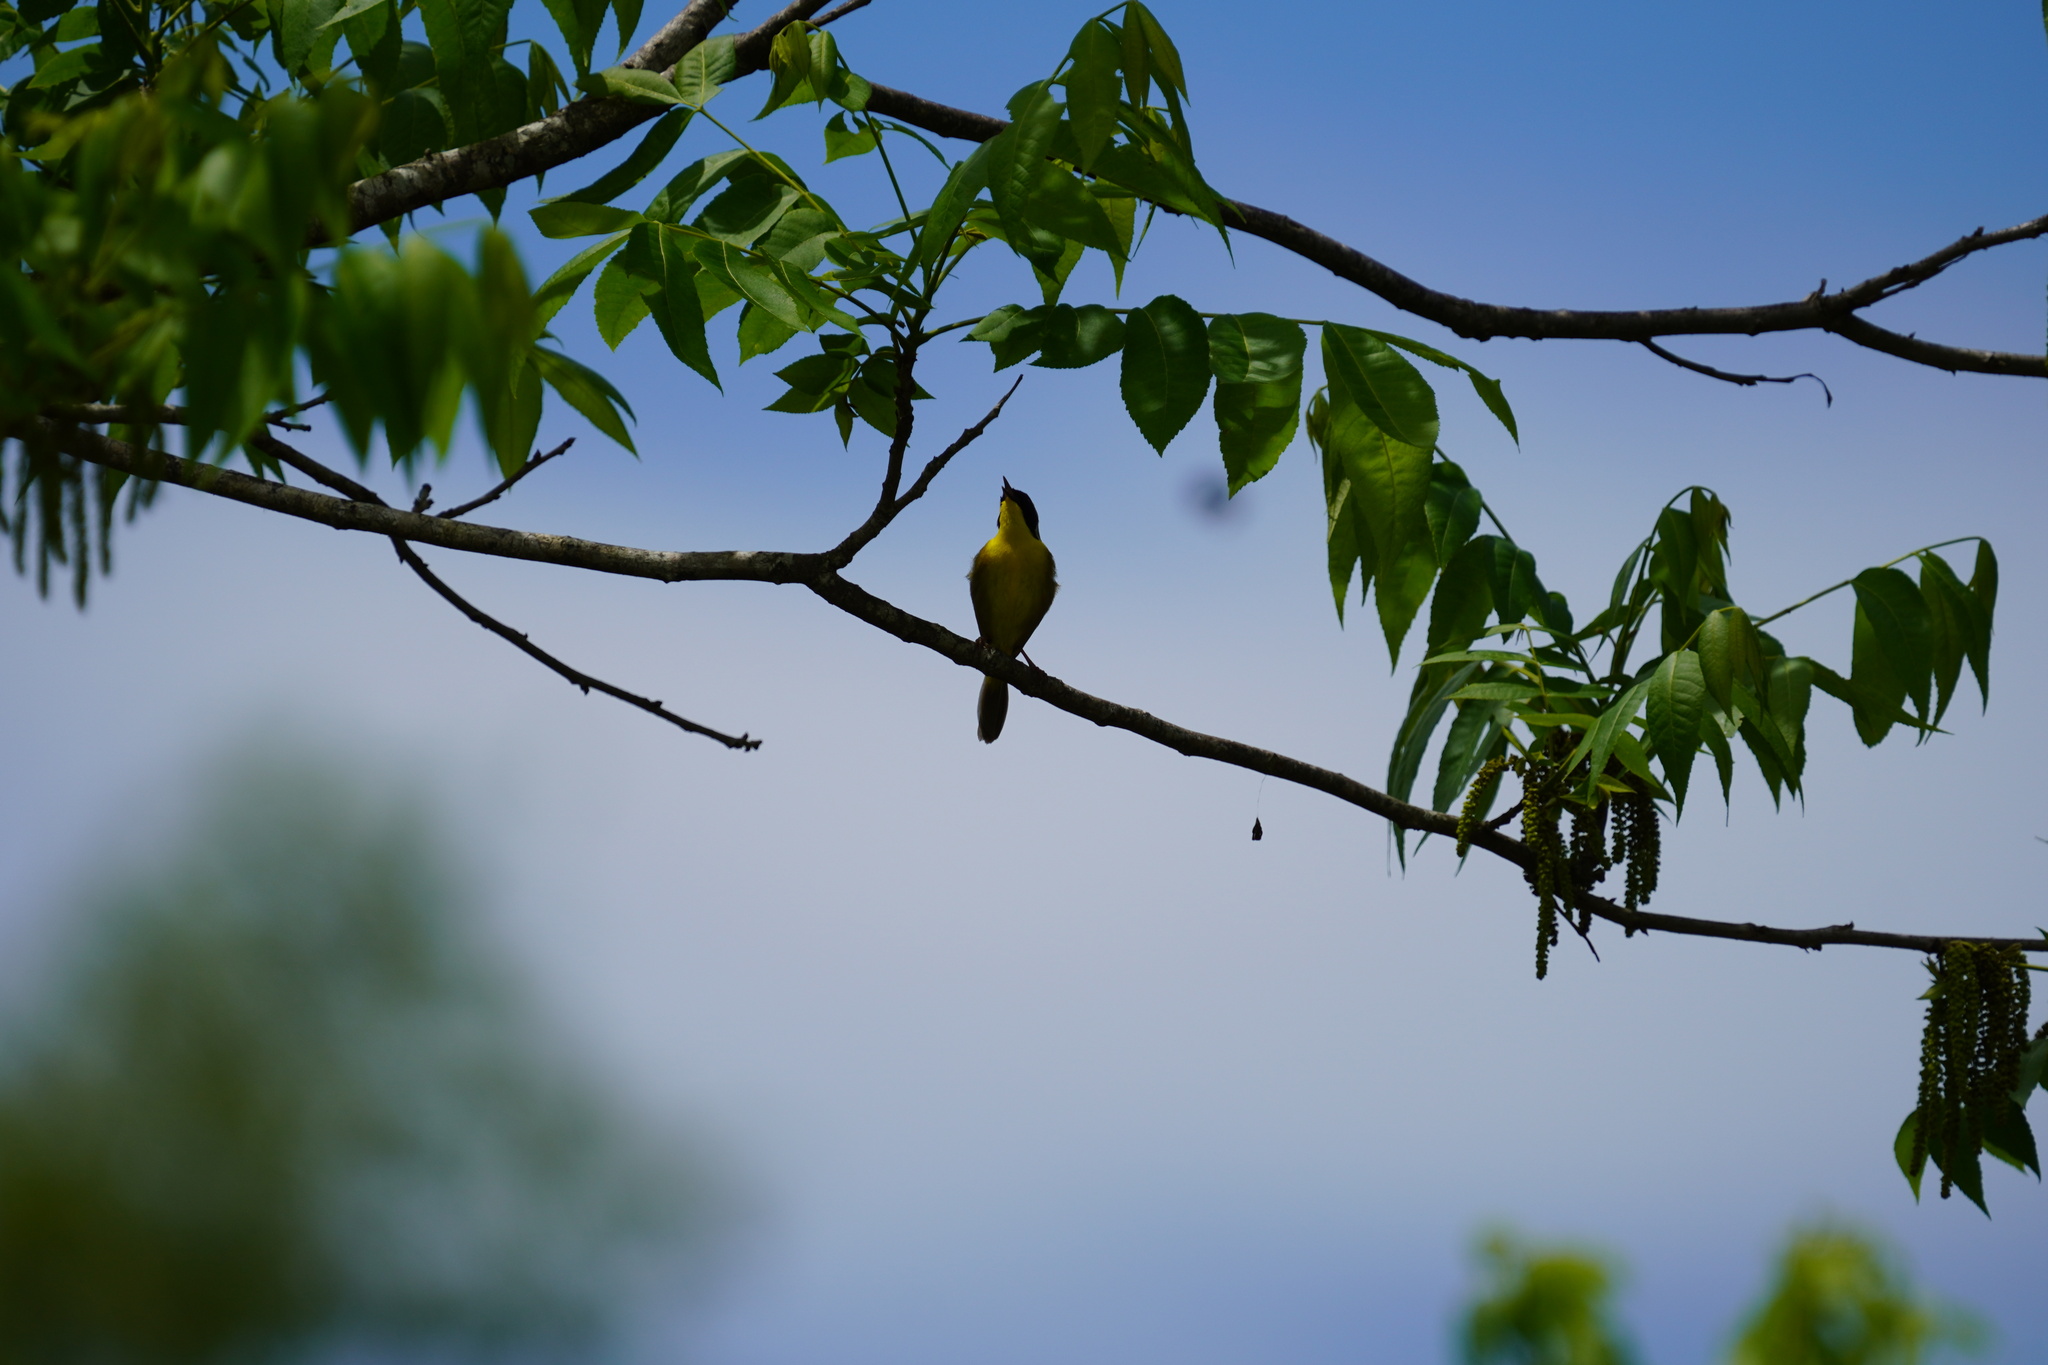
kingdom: Animalia
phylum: Chordata
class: Aves
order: Passeriformes
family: Parulidae
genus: Geothlypis
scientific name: Geothlypis trichas
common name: Common yellowthroat
